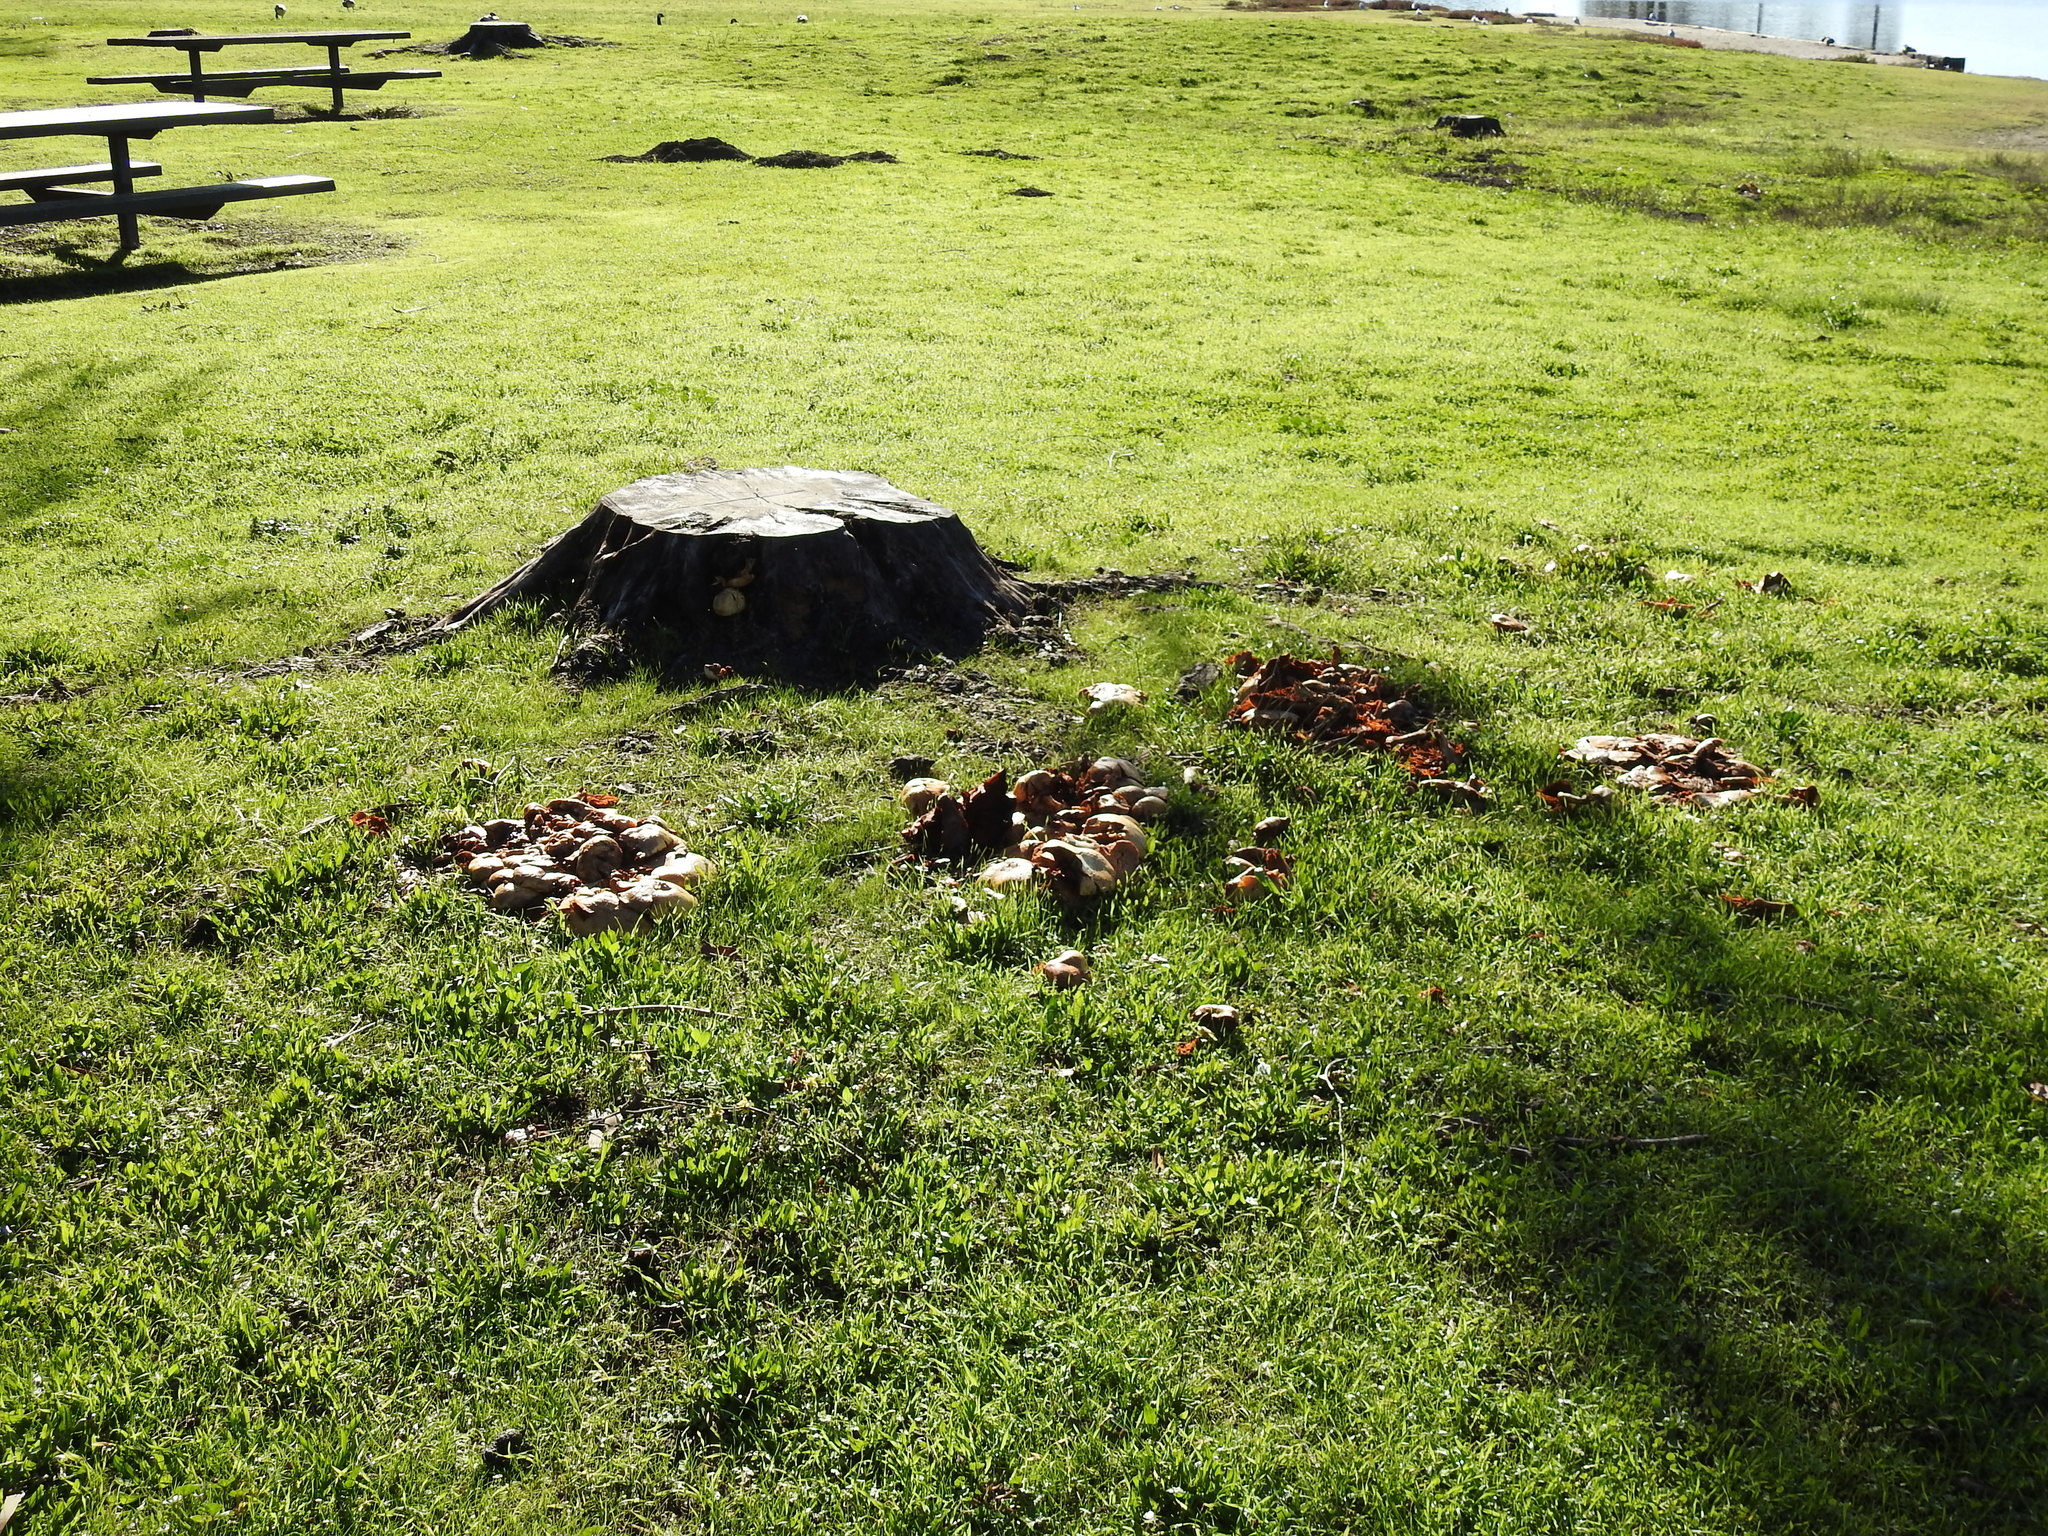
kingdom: Fungi
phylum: Basidiomycota
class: Agaricomycetes
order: Agaricales
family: Hymenogastraceae
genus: Gymnopilus
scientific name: Gymnopilus ventricosus
